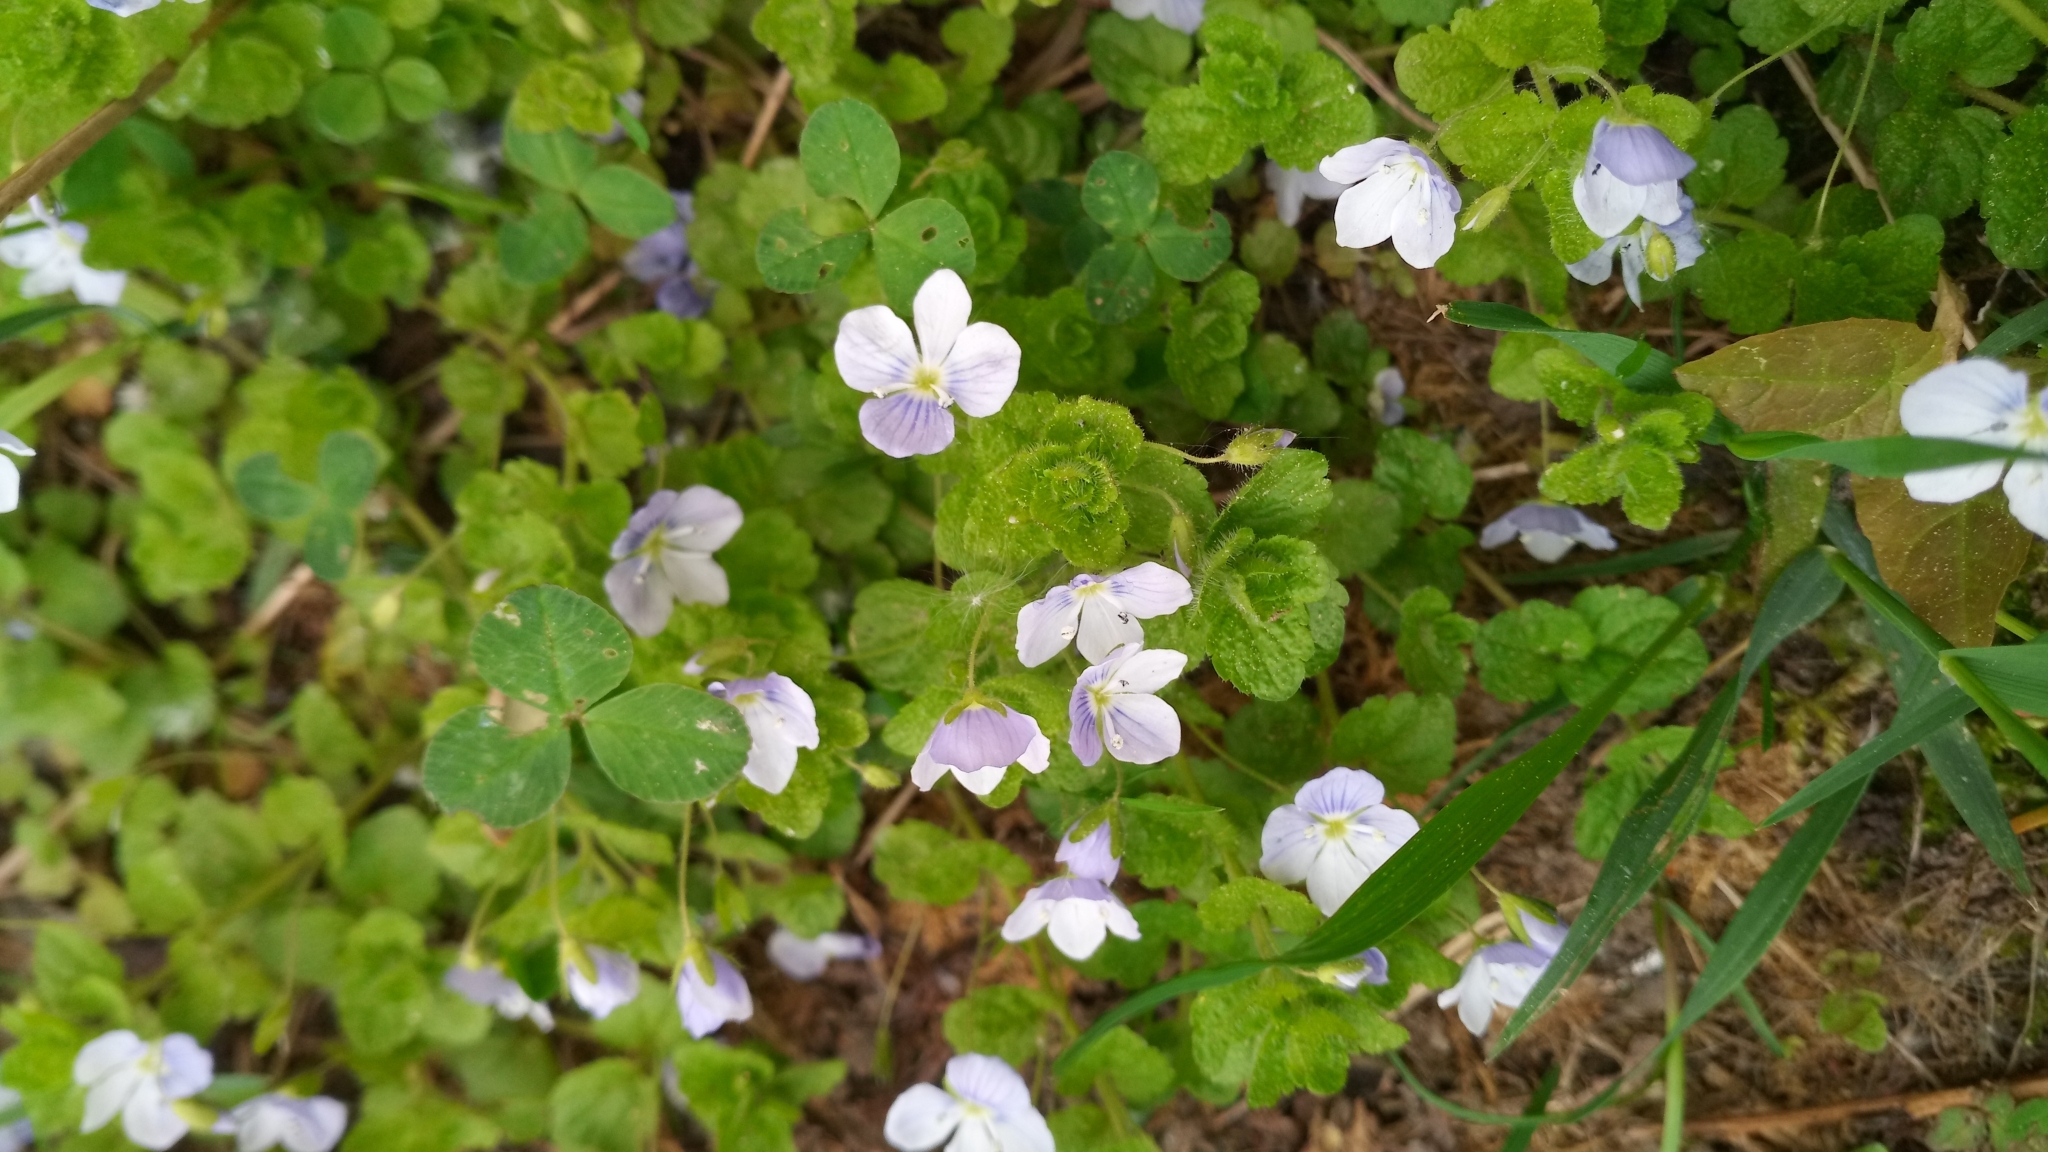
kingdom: Plantae
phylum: Tracheophyta
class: Magnoliopsida
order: Lamiales
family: Plantaginaceae
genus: Veronica
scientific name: Veronica filiformis
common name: Slender speedwell
